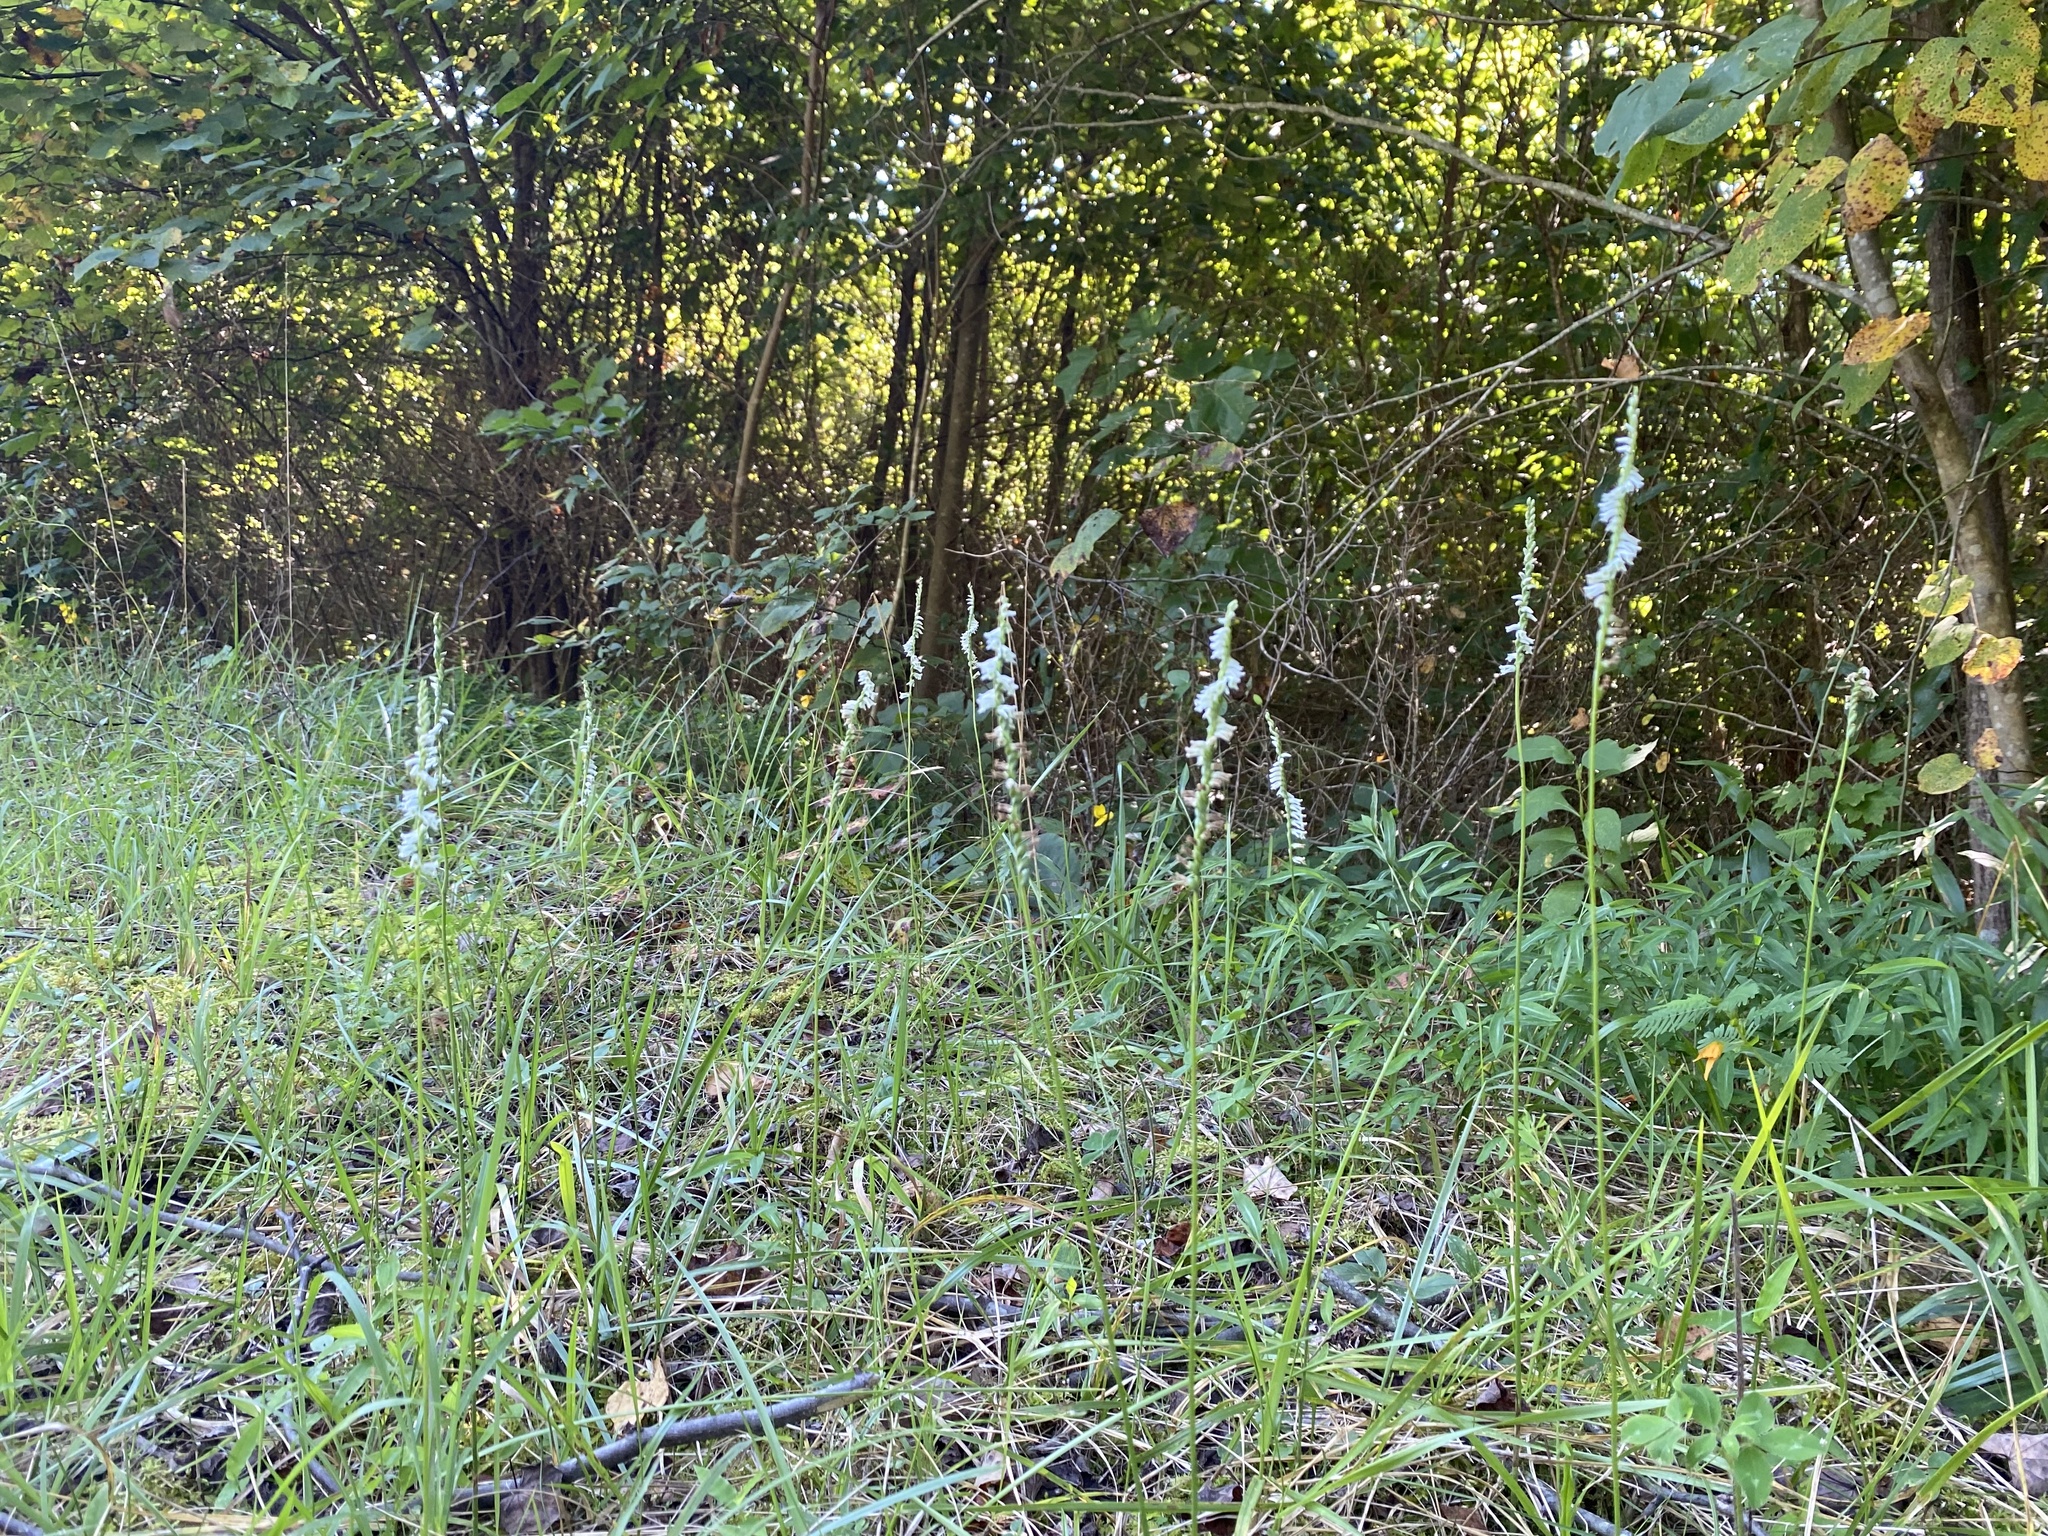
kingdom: Plantae
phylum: Tracheophyta
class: Liliopsida
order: Asparagales
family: Orchidaceae
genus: Spiranthes
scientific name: Spiranthes lacera
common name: Northern slender ladies'-tresses
